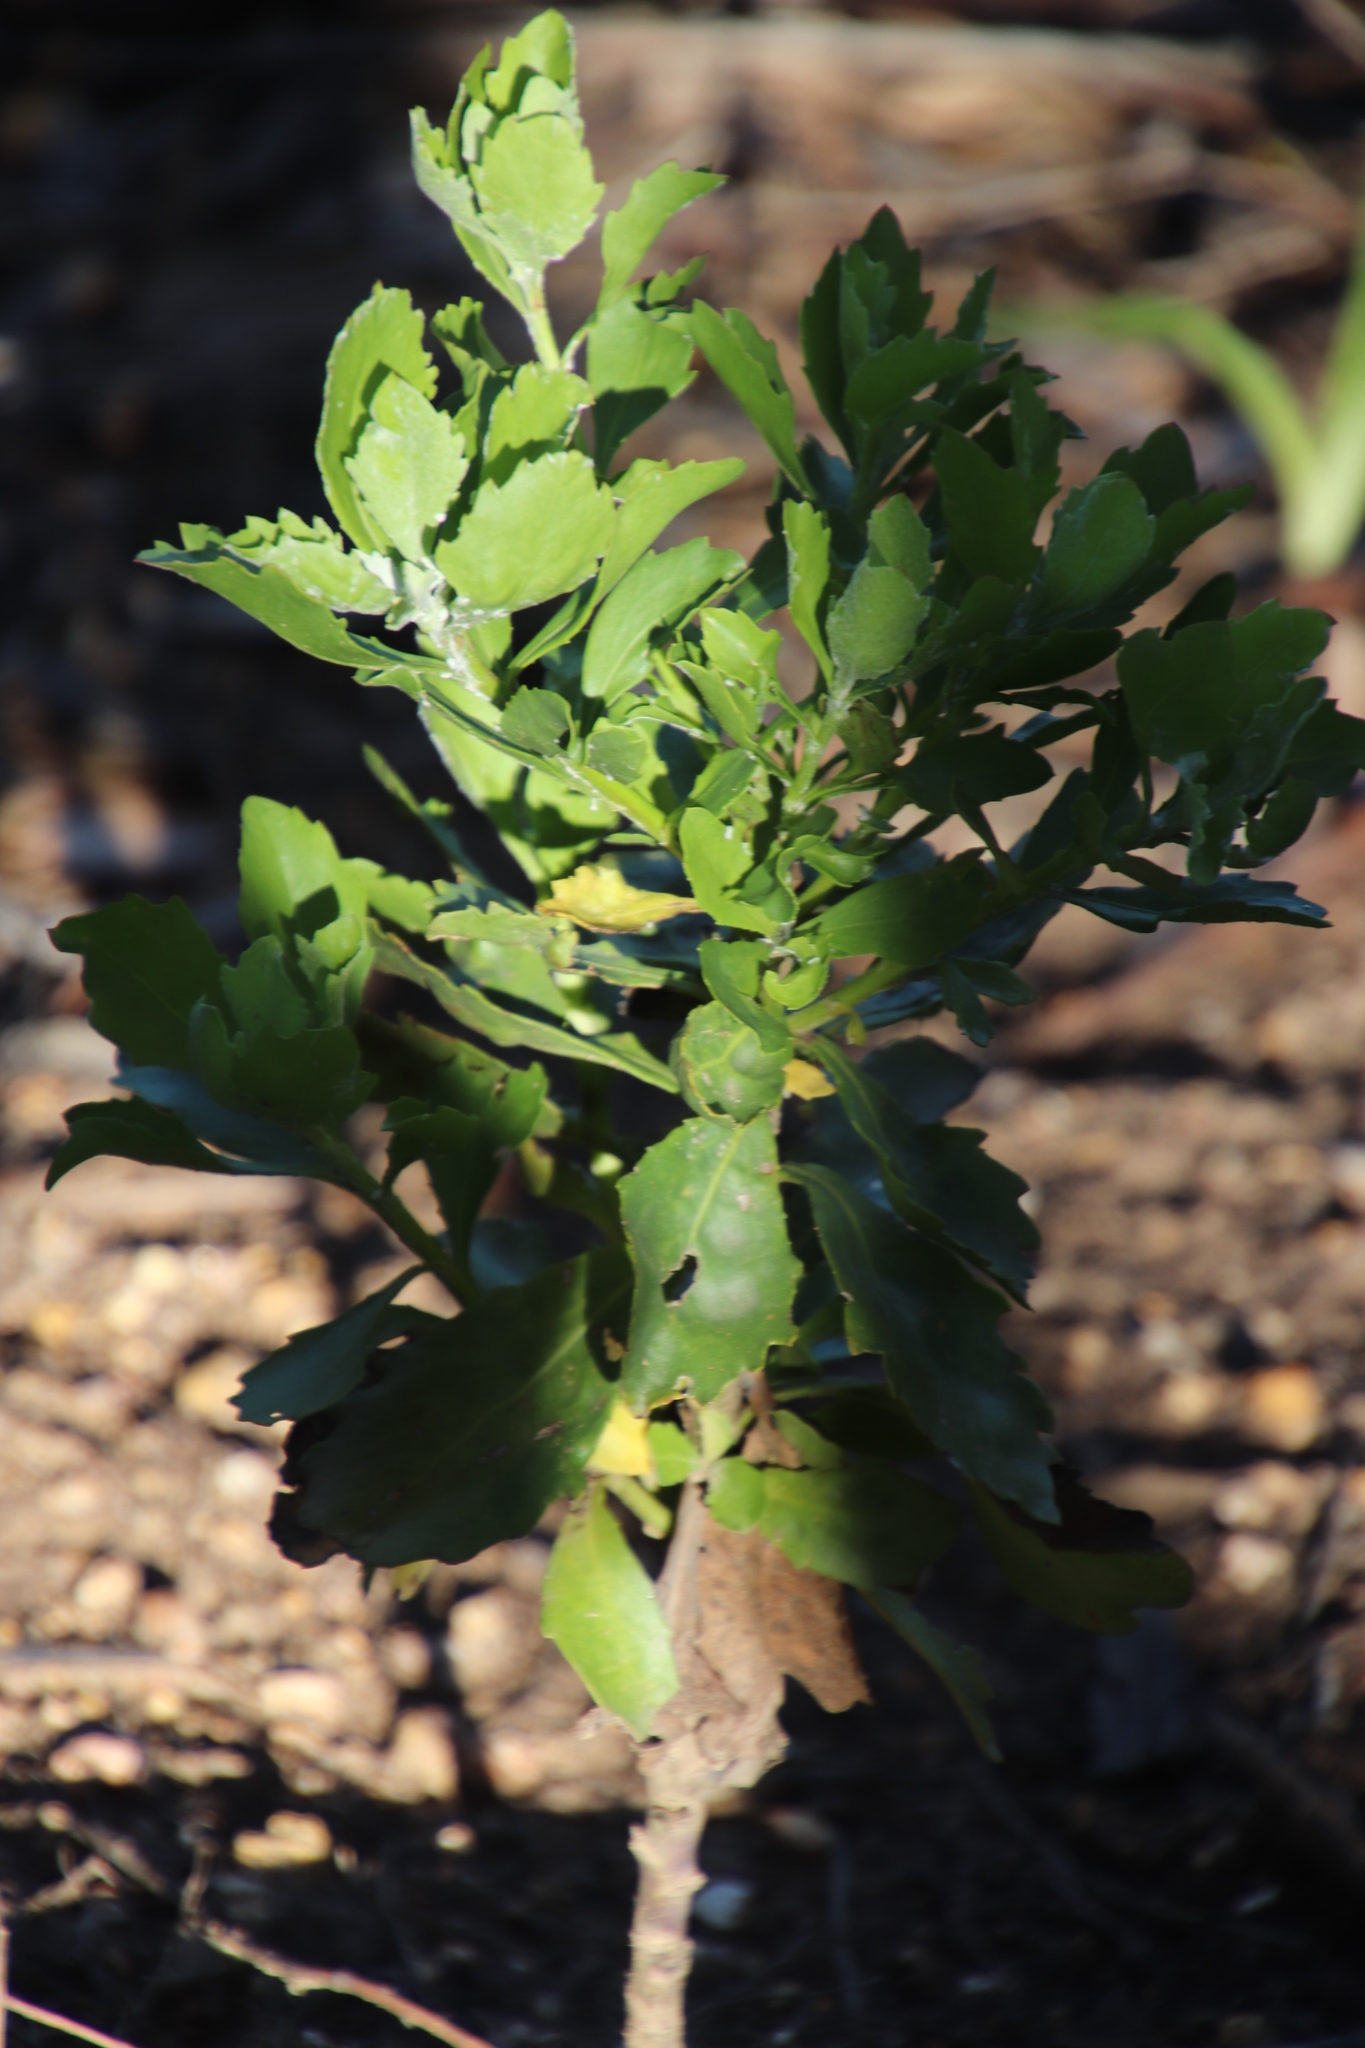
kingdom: Plantae
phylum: Tracheophyta
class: Magnoliopsida
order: Asterales
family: Asteraceae
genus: Osteospermum
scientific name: Osteospermum moniliferum
